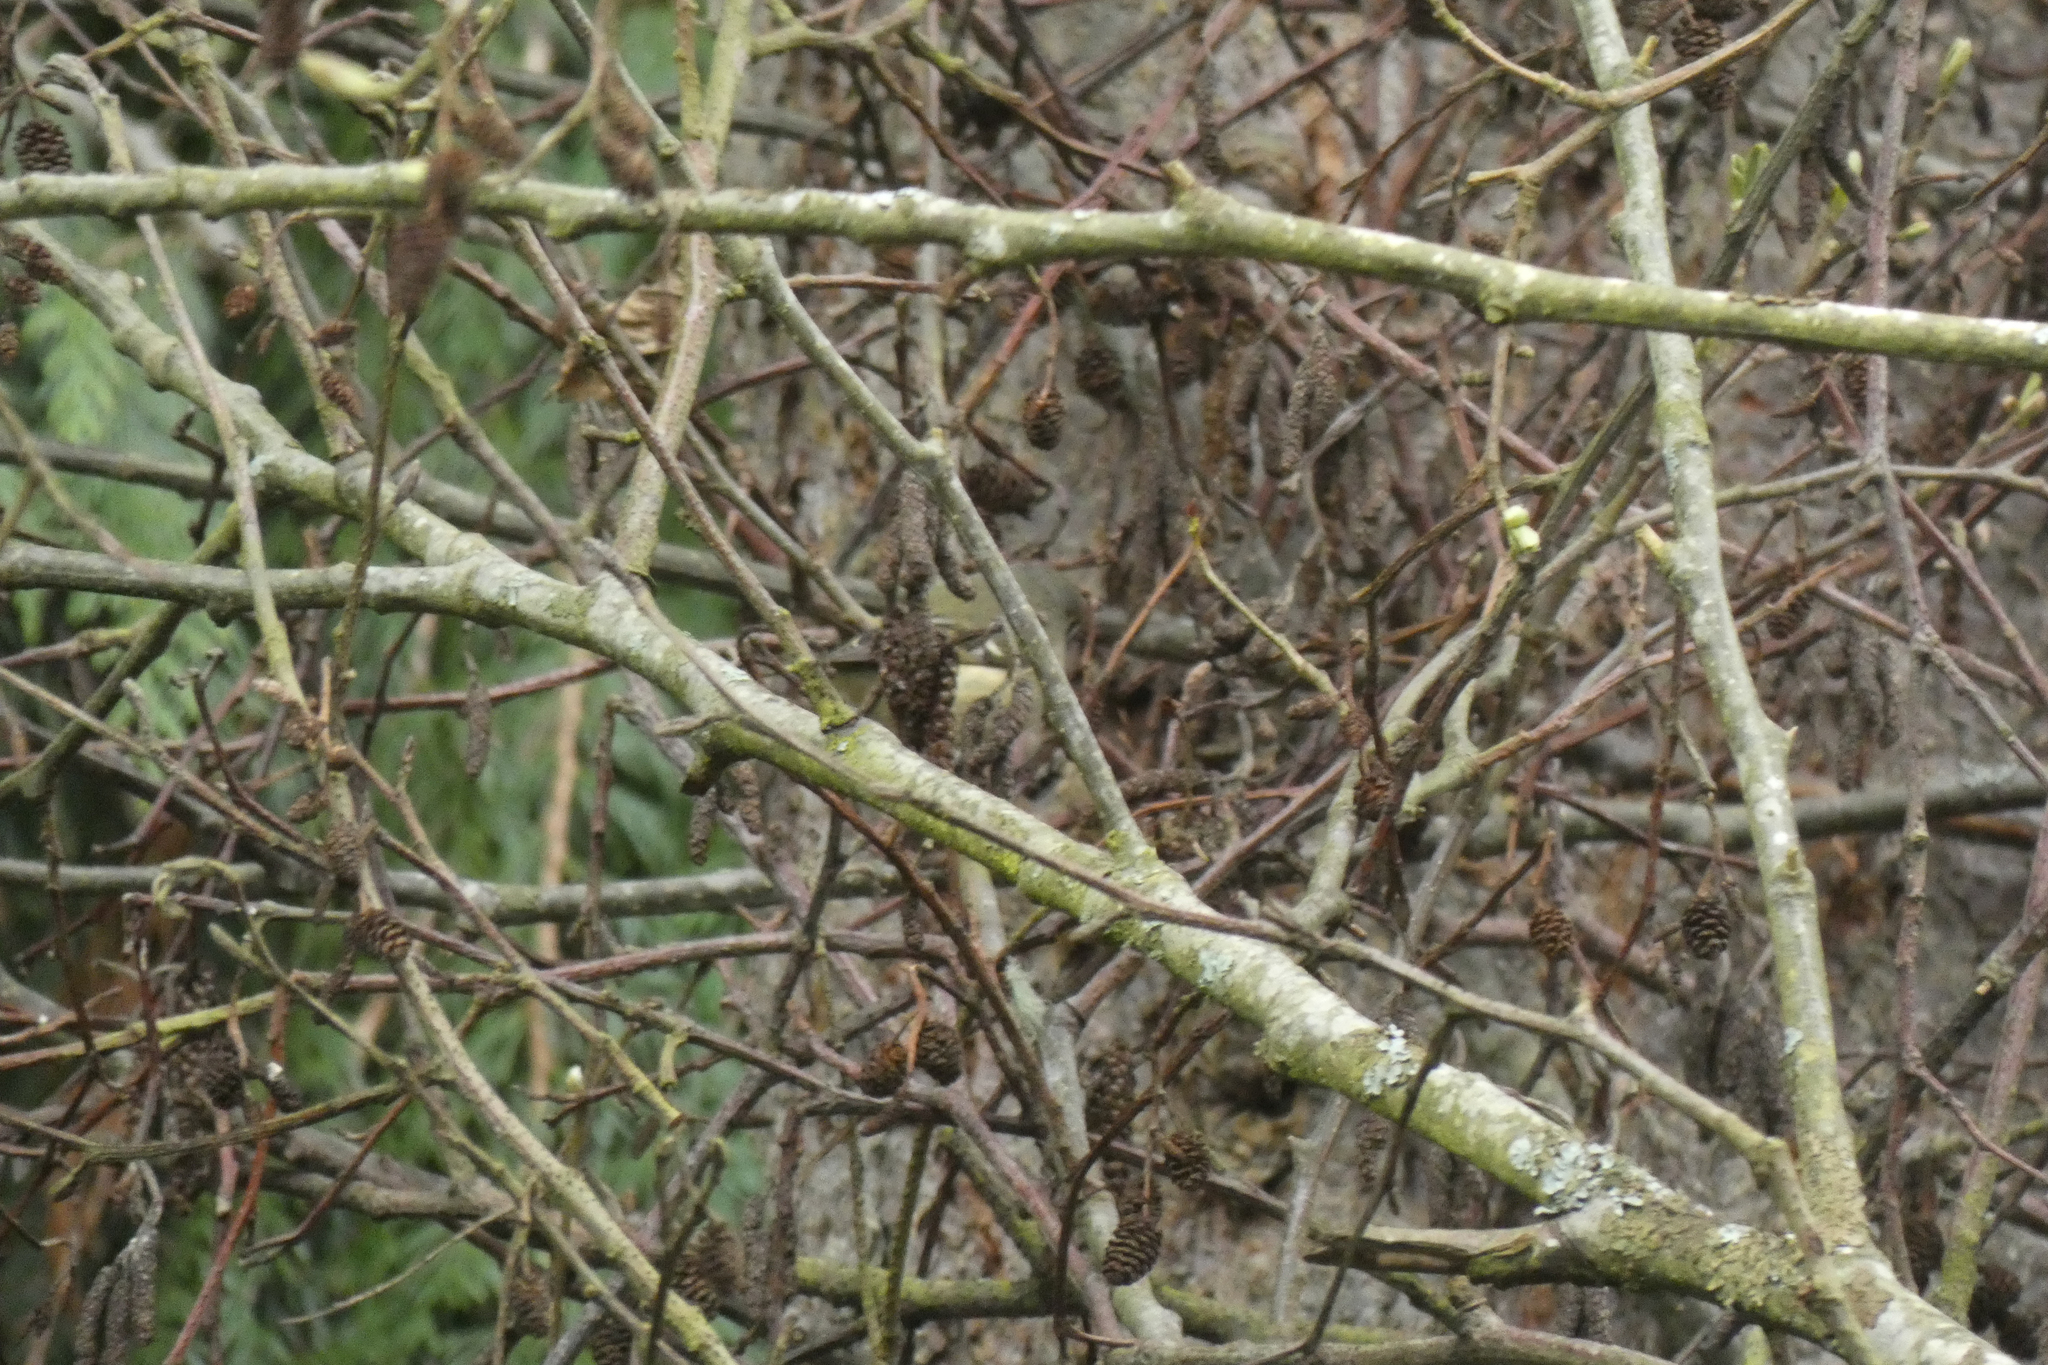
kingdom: Animalia
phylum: Chordata
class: Aves
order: Passeriformes
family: Regulidae
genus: Regulus
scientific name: Regulus calendula
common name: Ruby-crowned kinglet
